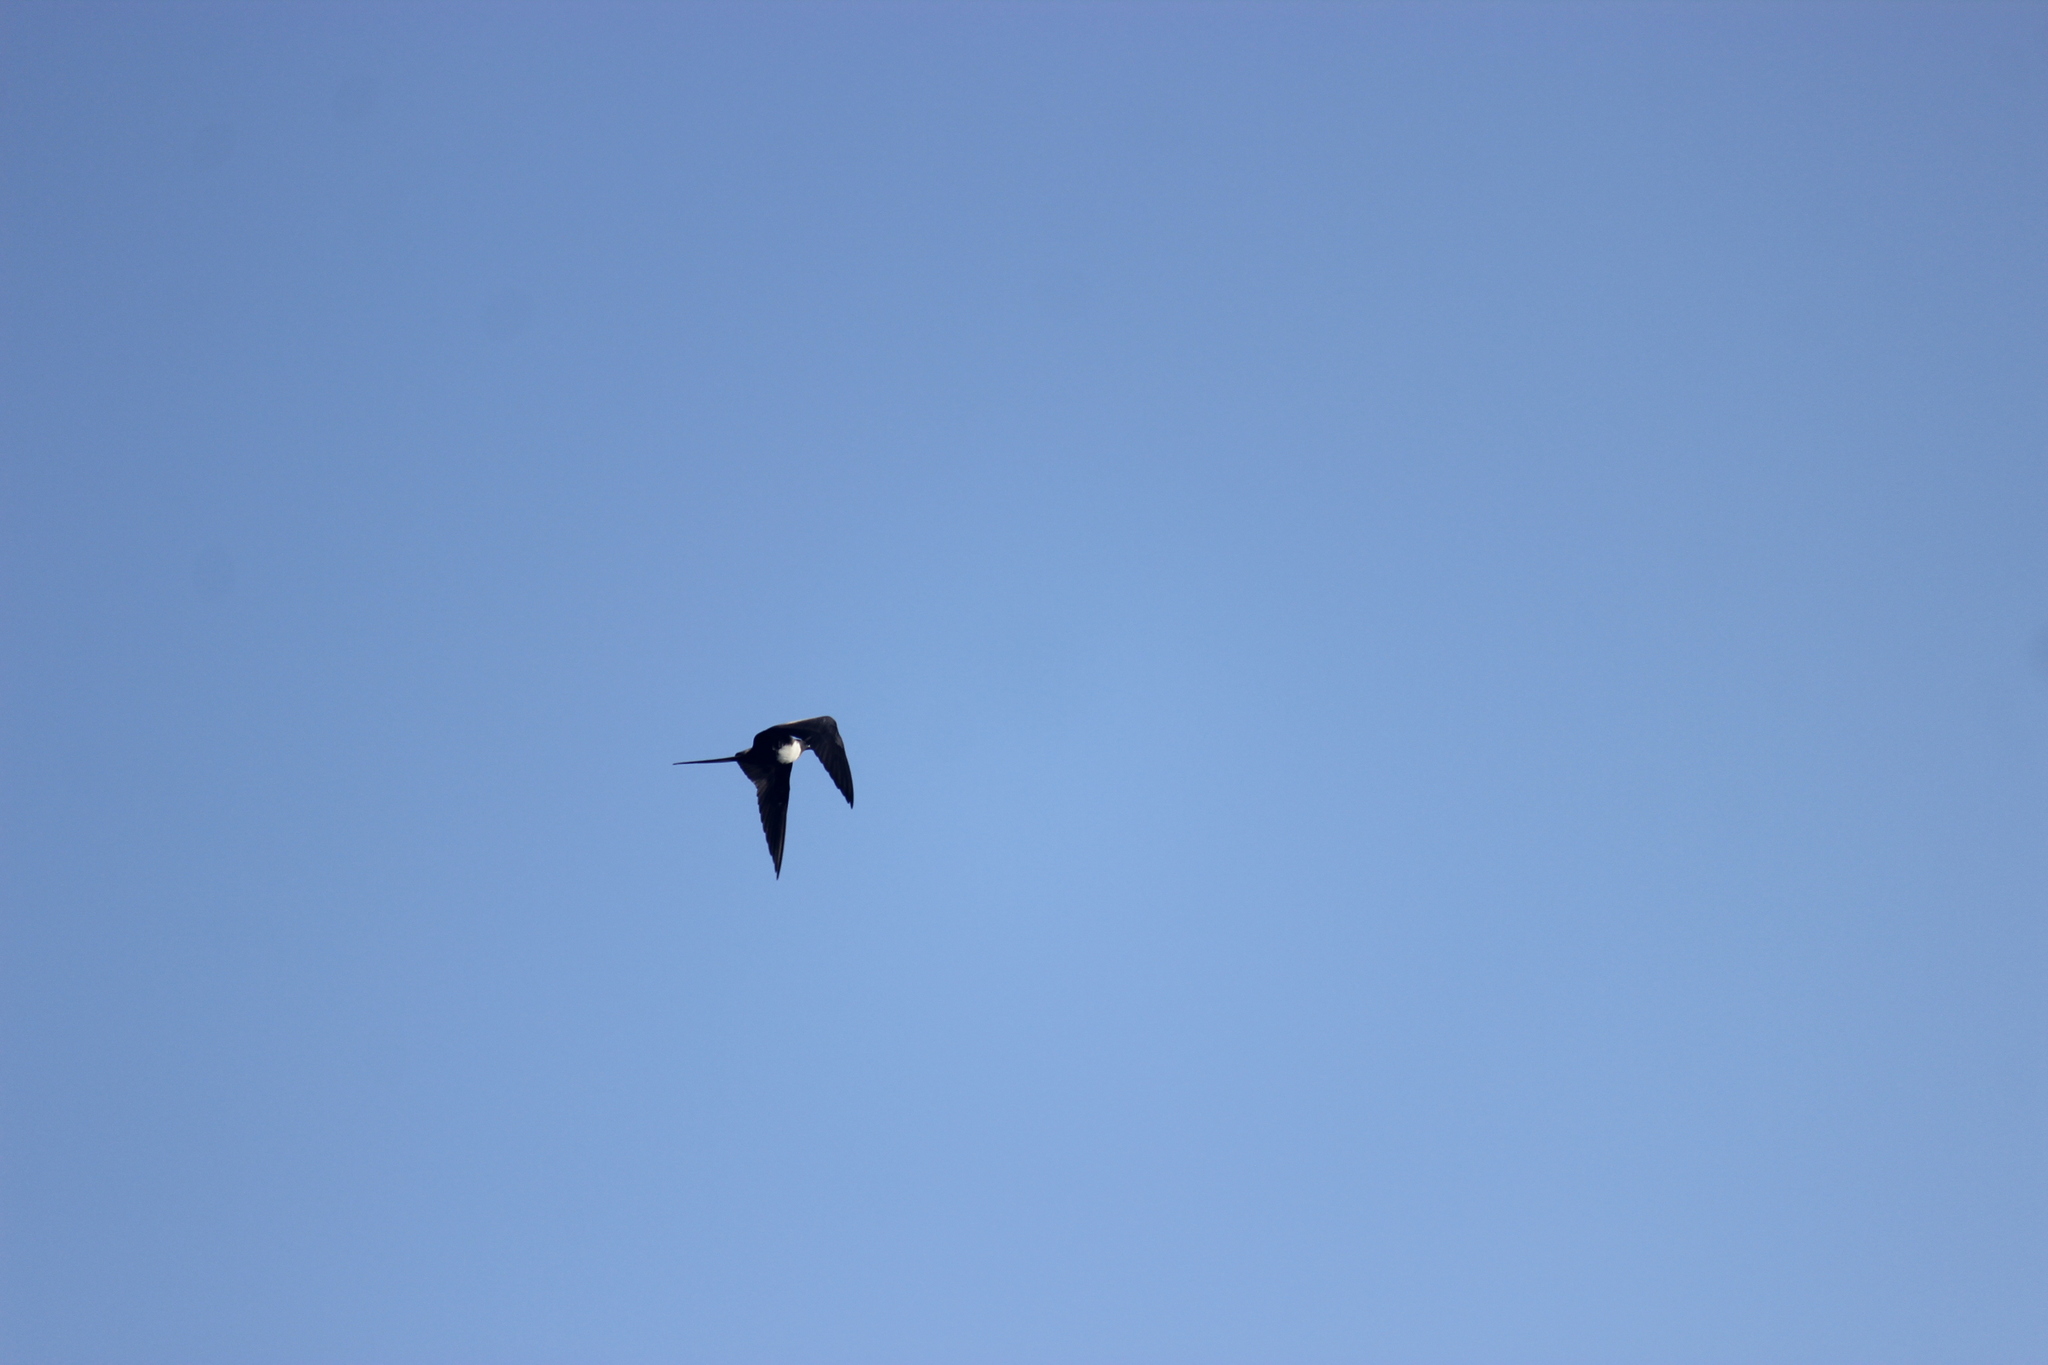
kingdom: Animalia
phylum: Chordata
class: Aves
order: Suliformes
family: Fregatidae
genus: Fregata
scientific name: Fregata magnificens
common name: Magnificent frigatebird
